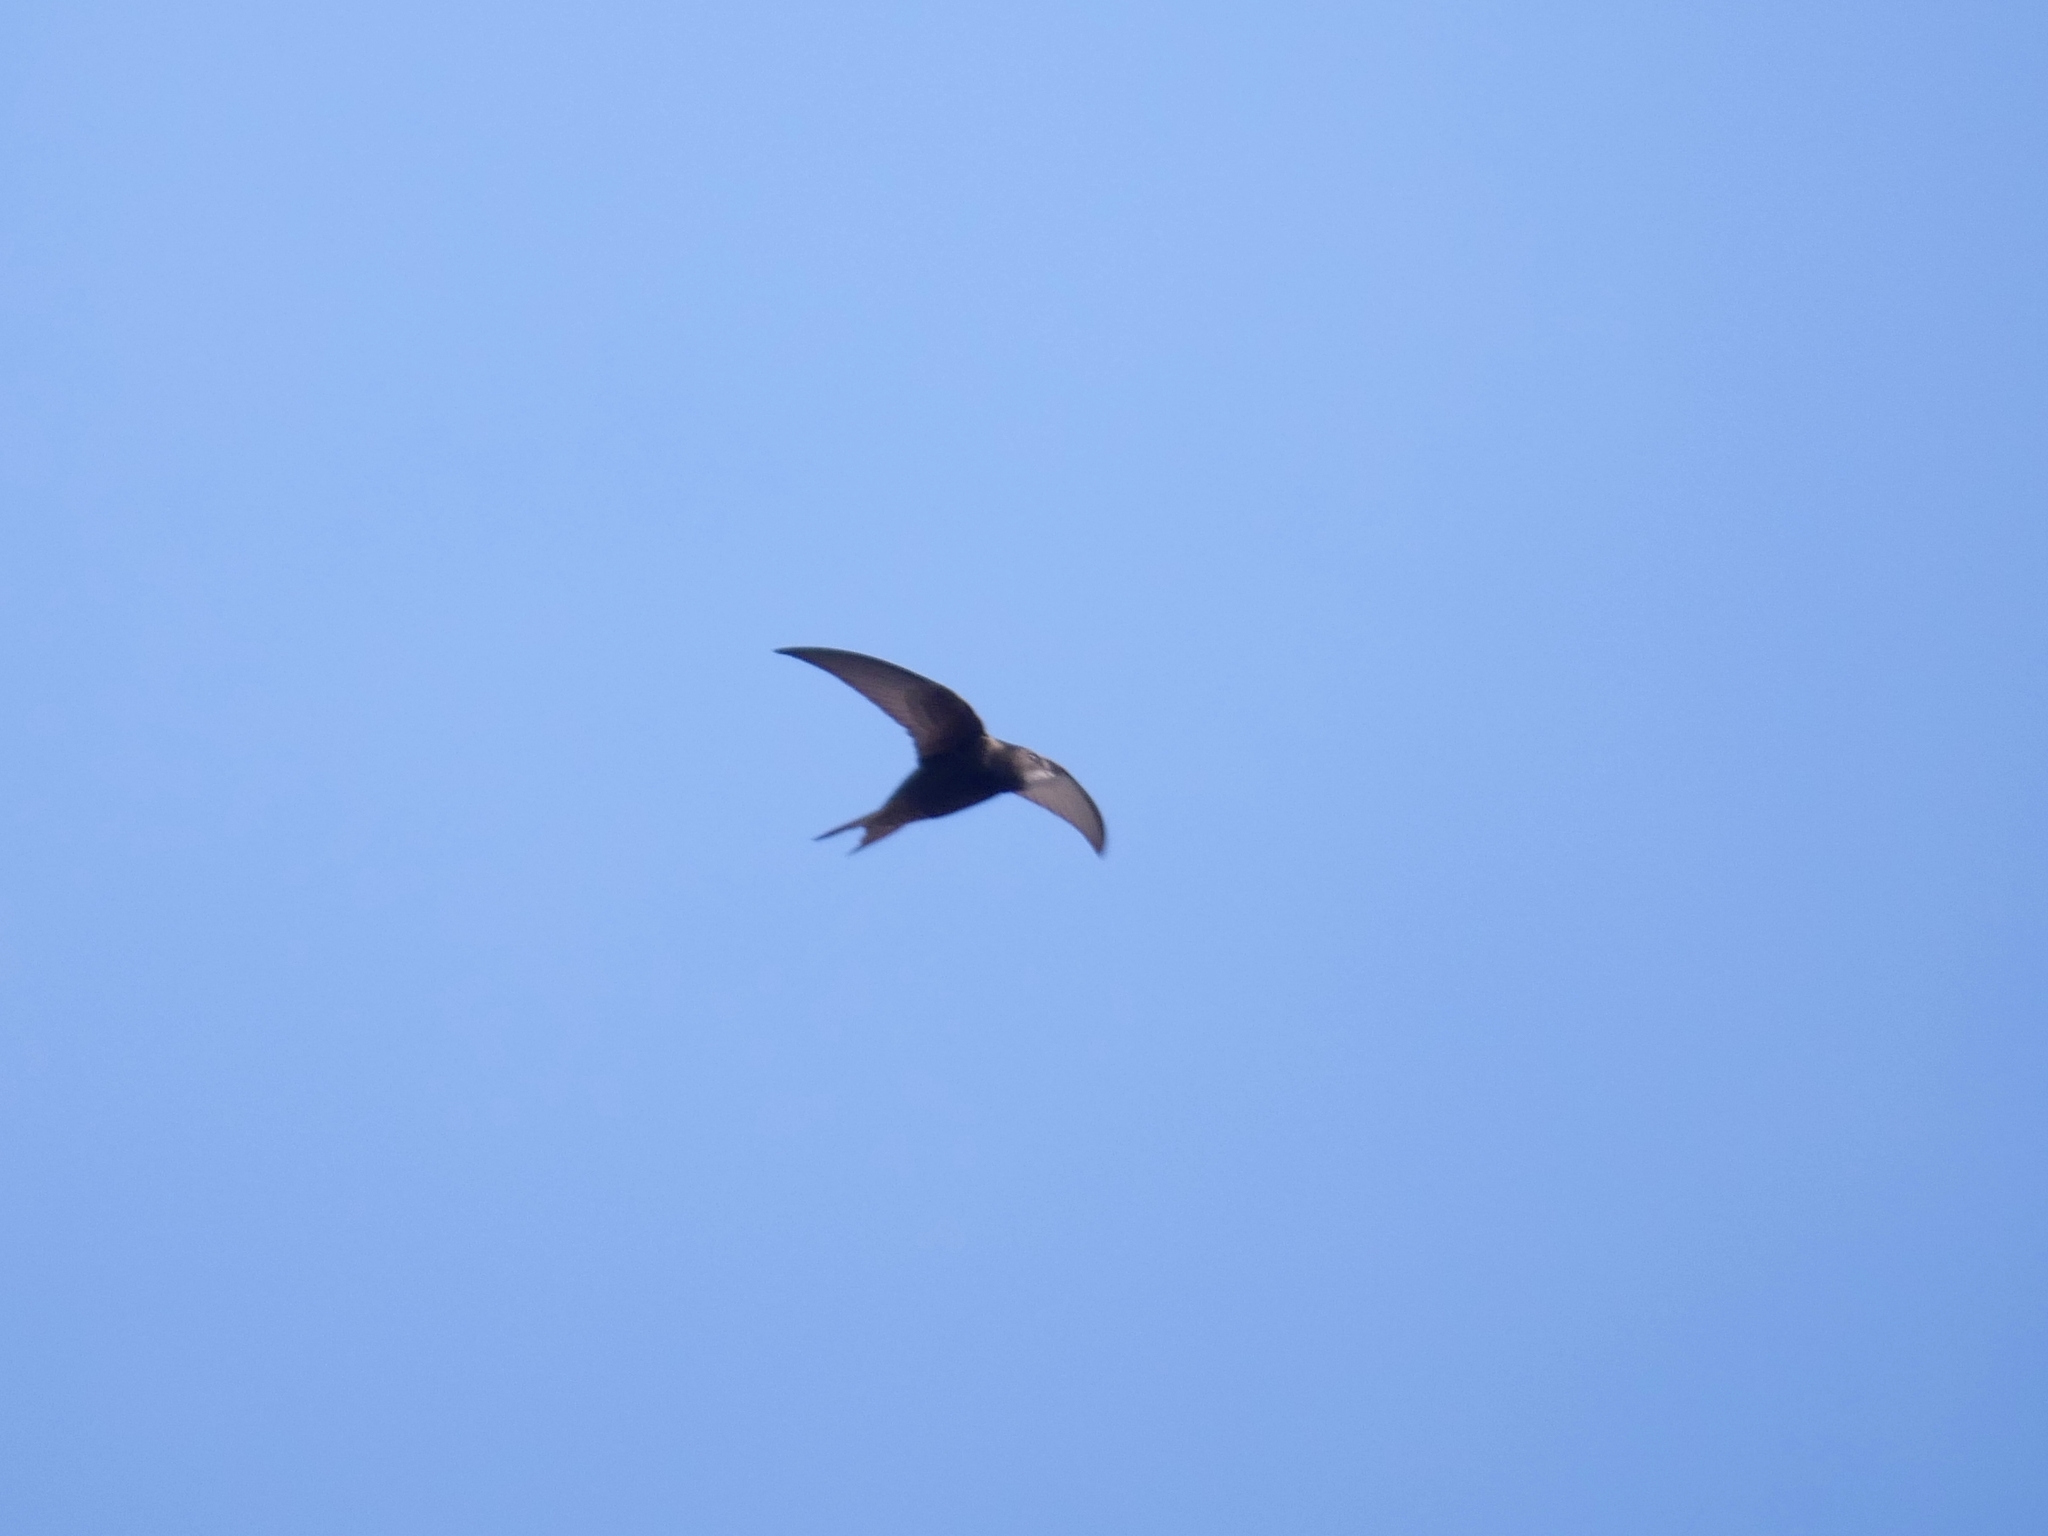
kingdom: Animalia
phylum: Chordata
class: Aves
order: Apodiformes
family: Apodidae
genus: Apus
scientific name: Apus apus
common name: Common swift
